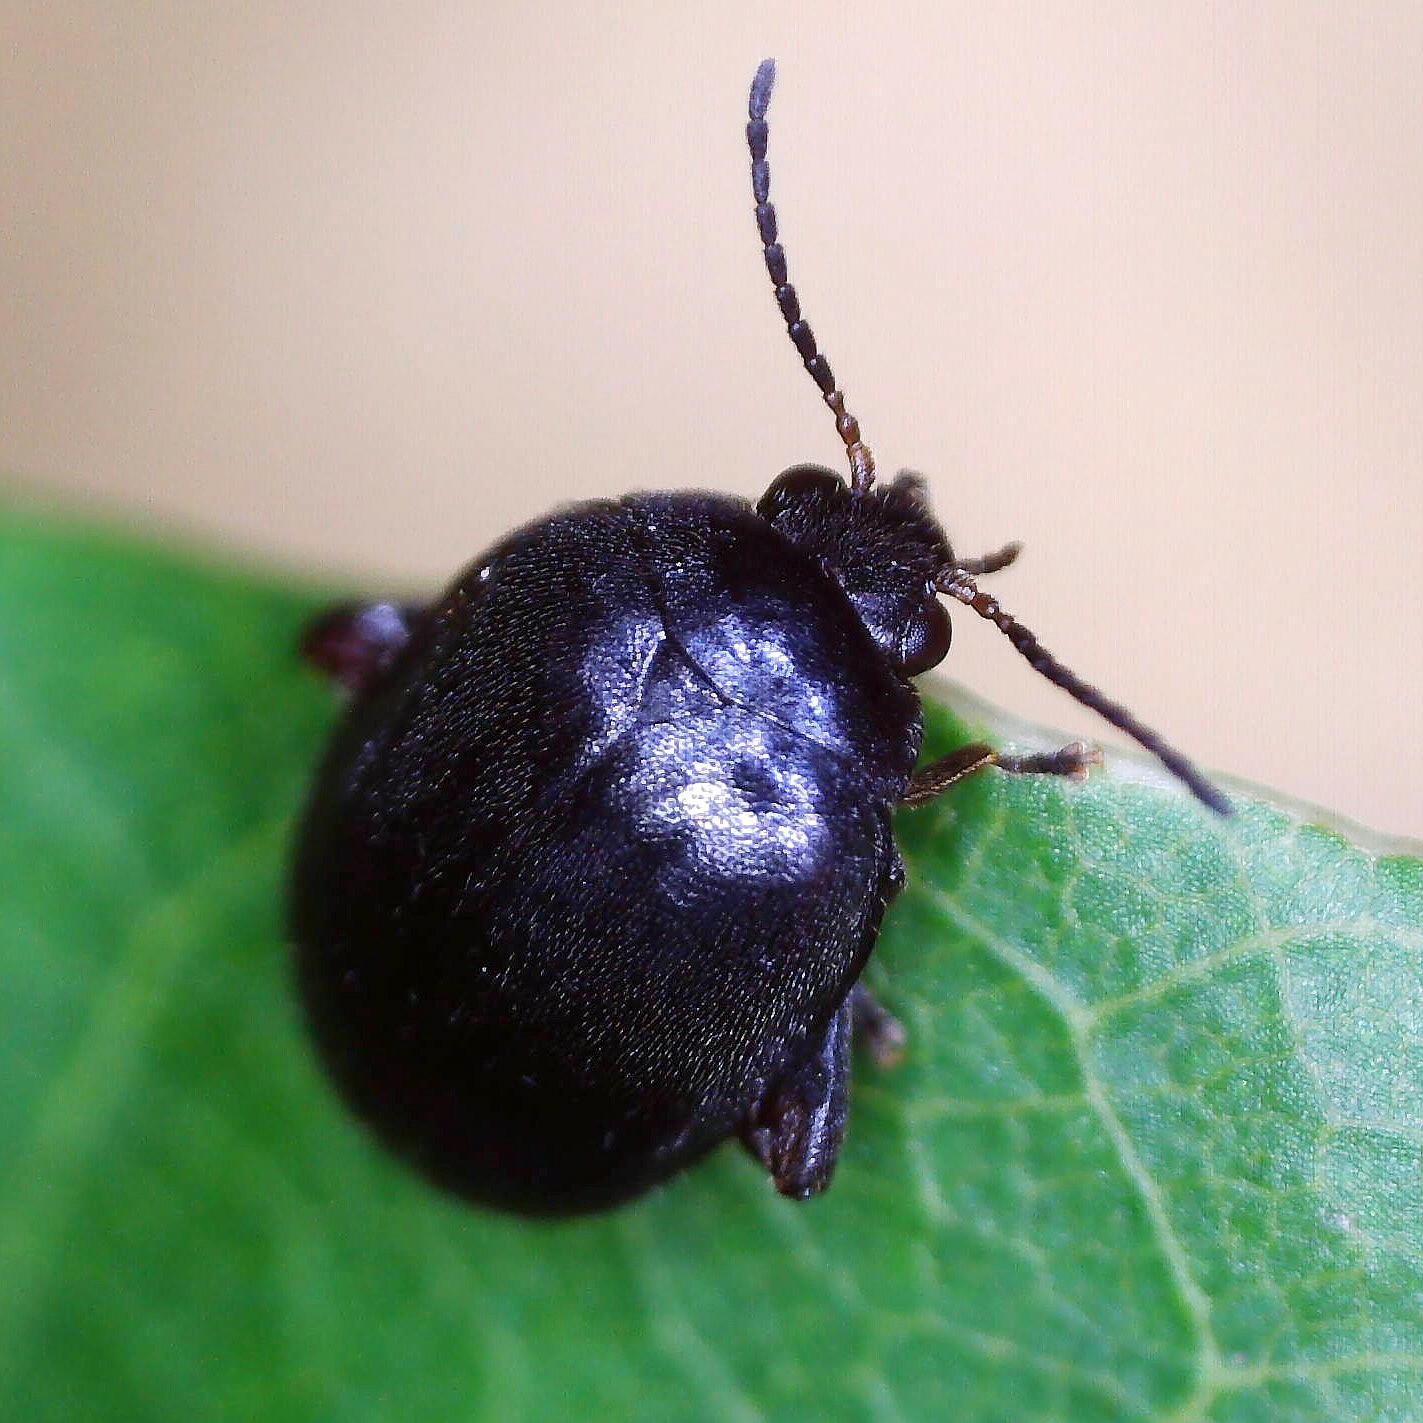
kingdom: Animalia
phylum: Arthropoda
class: Insecta
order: Coleoptera
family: Scirtidae
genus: Scirtes
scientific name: Scirtes hemisphaericus
